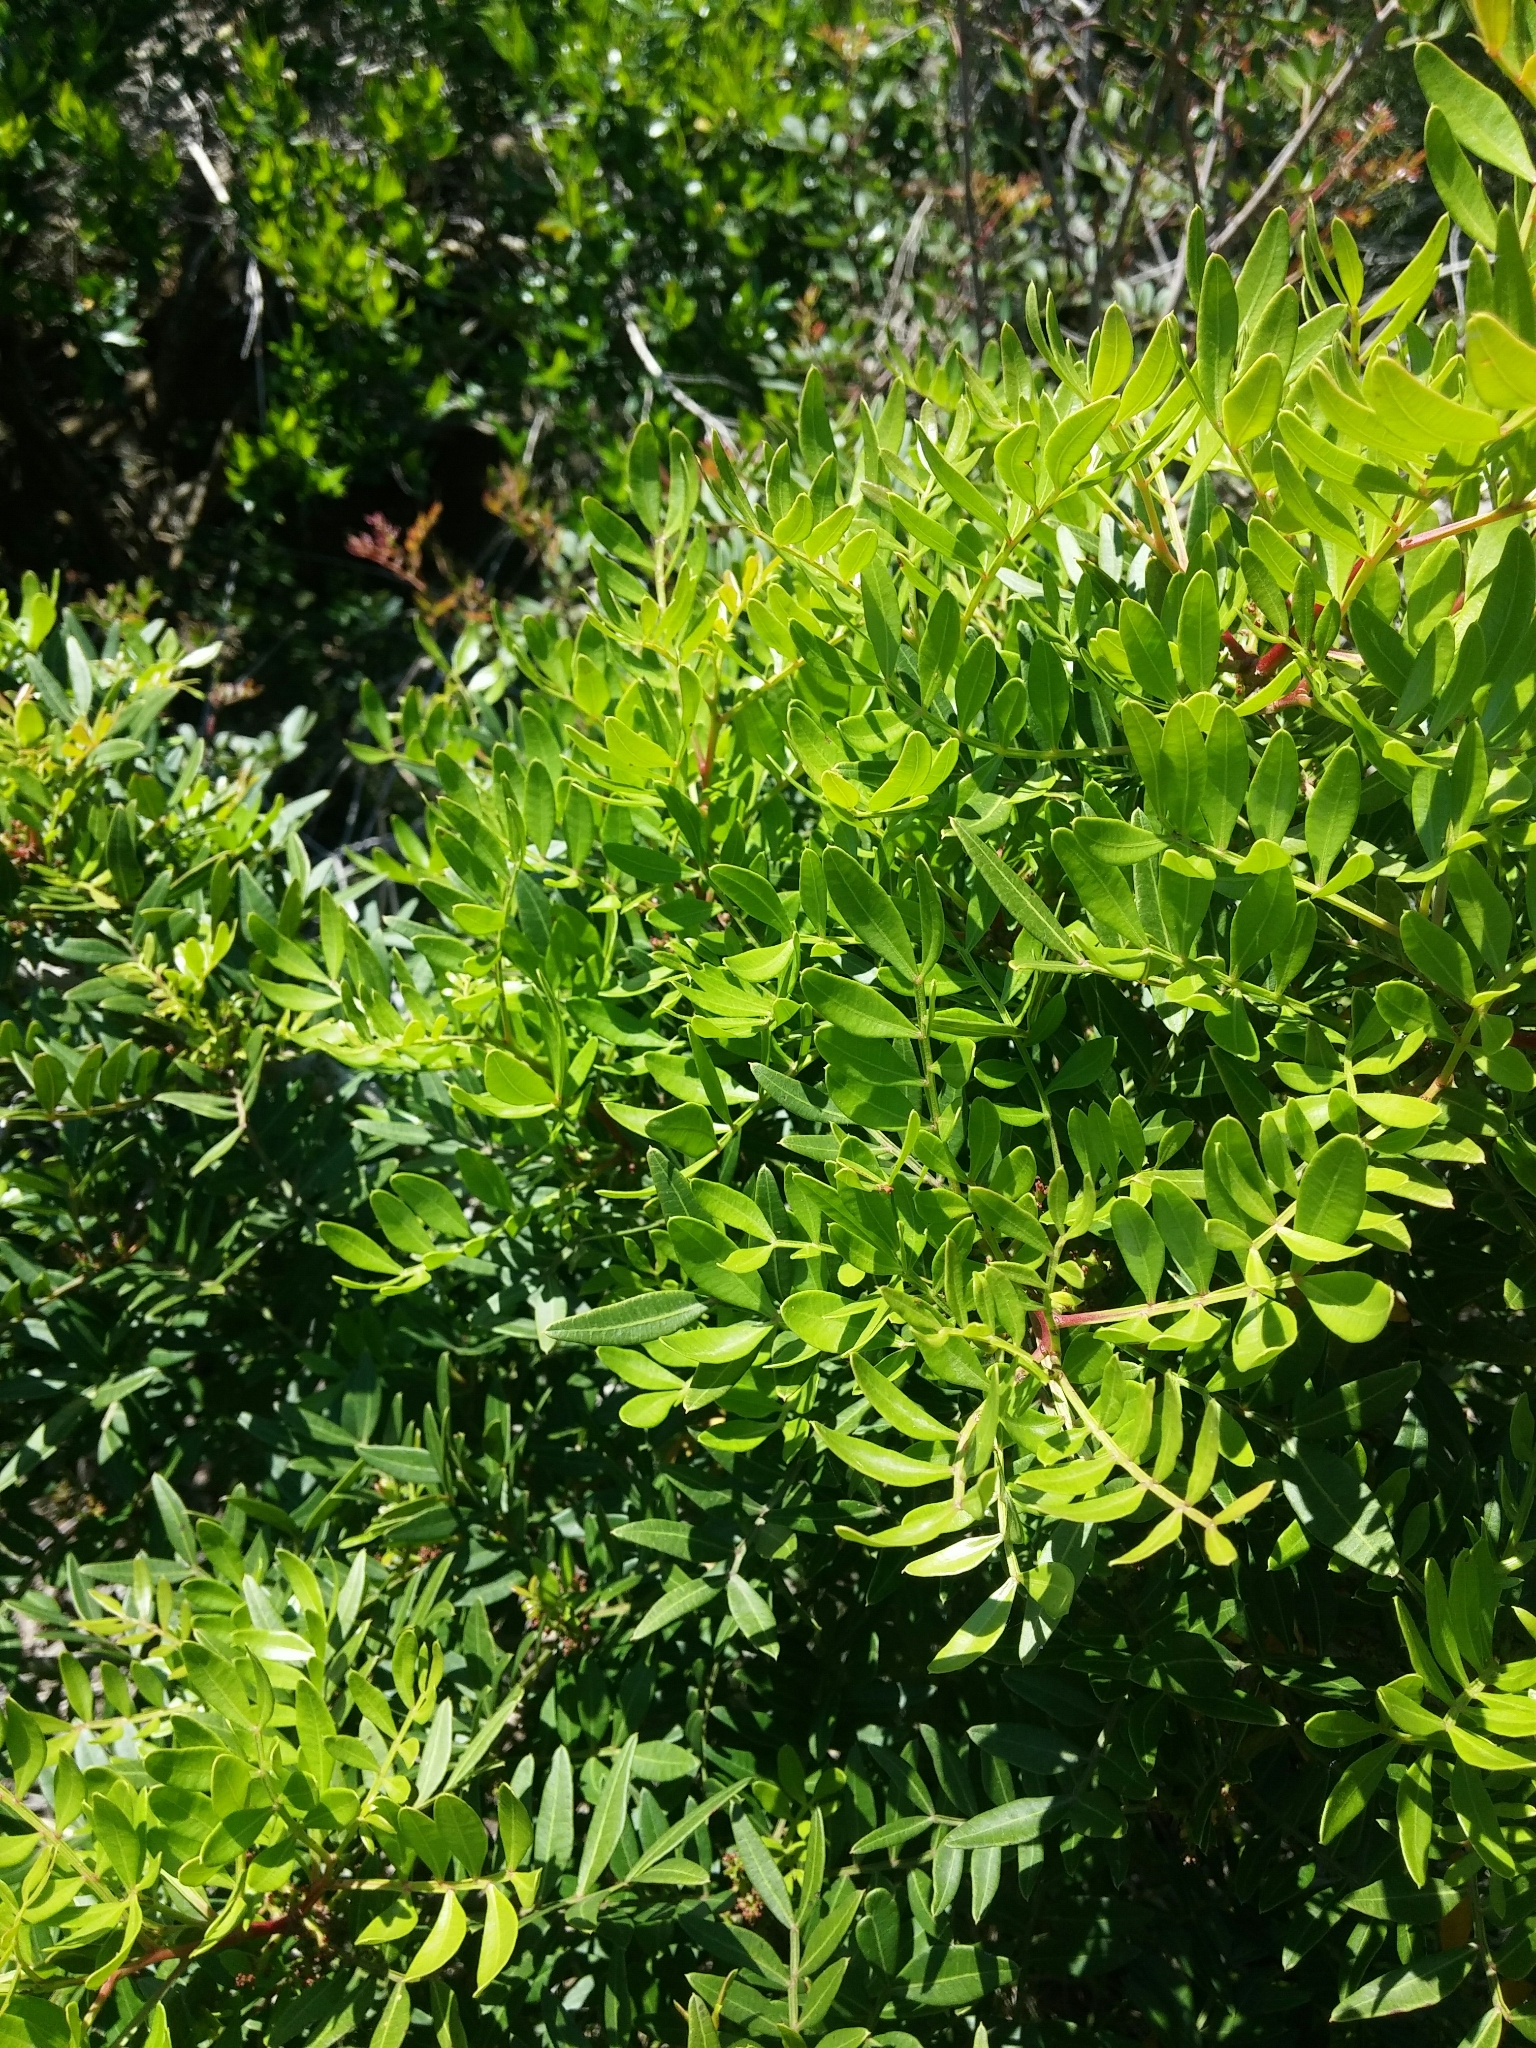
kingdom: Plantae
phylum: Tracheophyta
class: Magnoliopsida
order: Sapindales
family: Anacardiaceae
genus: Pistacia
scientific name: Pistacia lentiscus
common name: Lentisk
